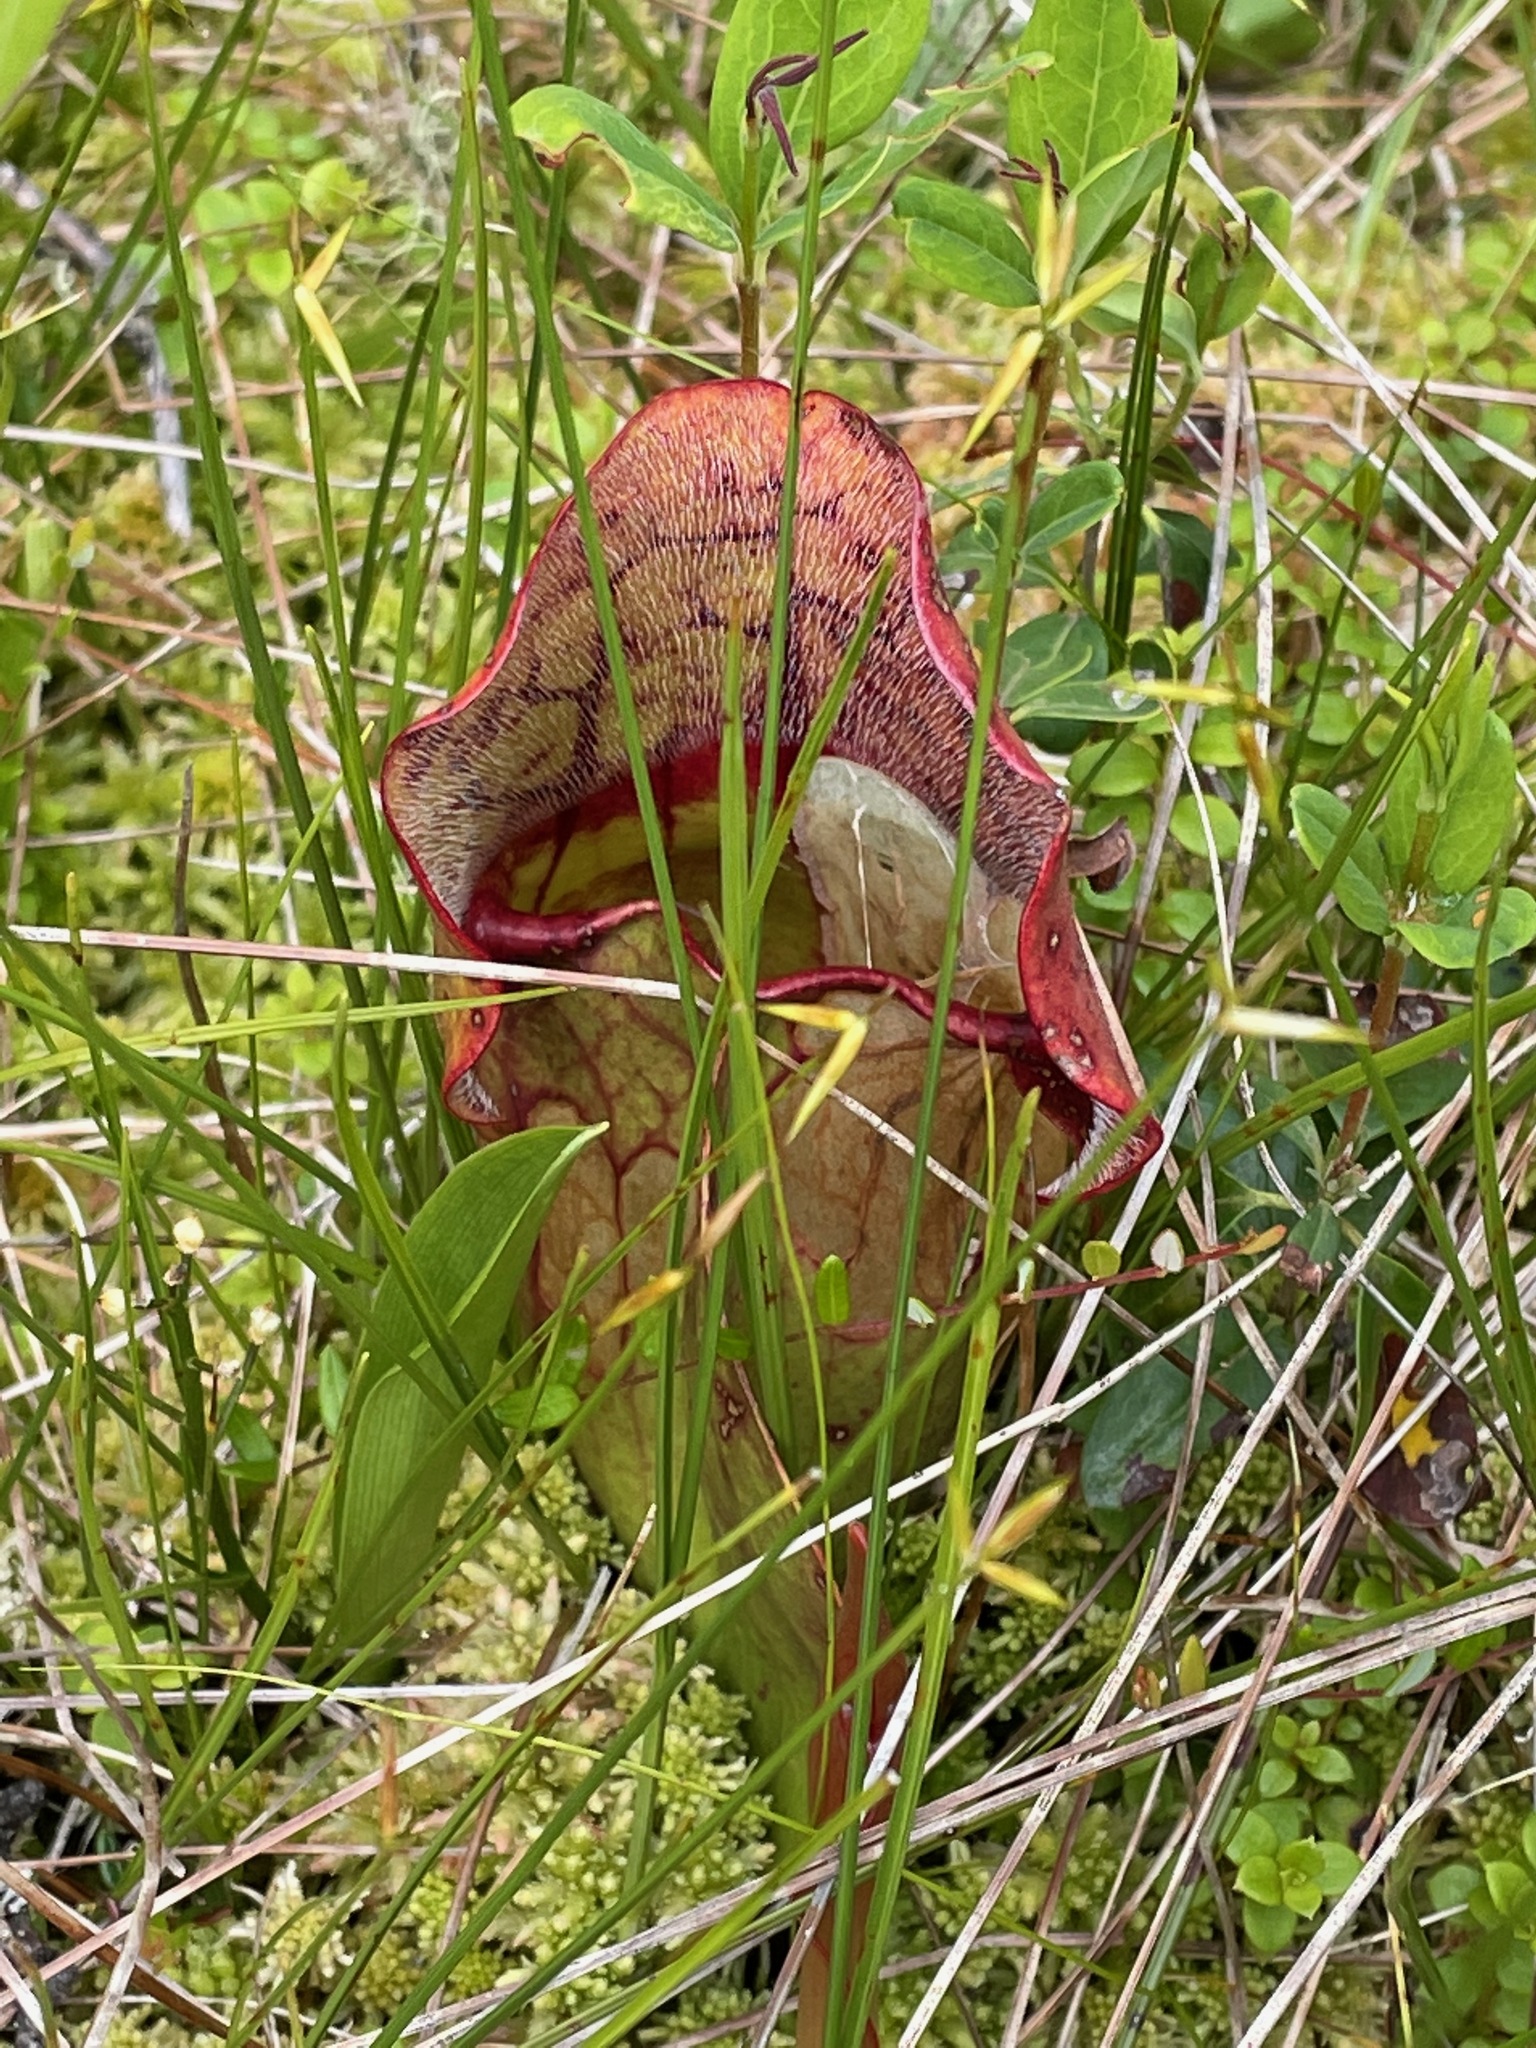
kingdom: Plantae
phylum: Tracheophyta
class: Magnoliopsida
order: Ericales
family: Sarraceniaceae
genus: Sarracenia
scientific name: Sarracenia purpurea
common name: Pitcherplant
